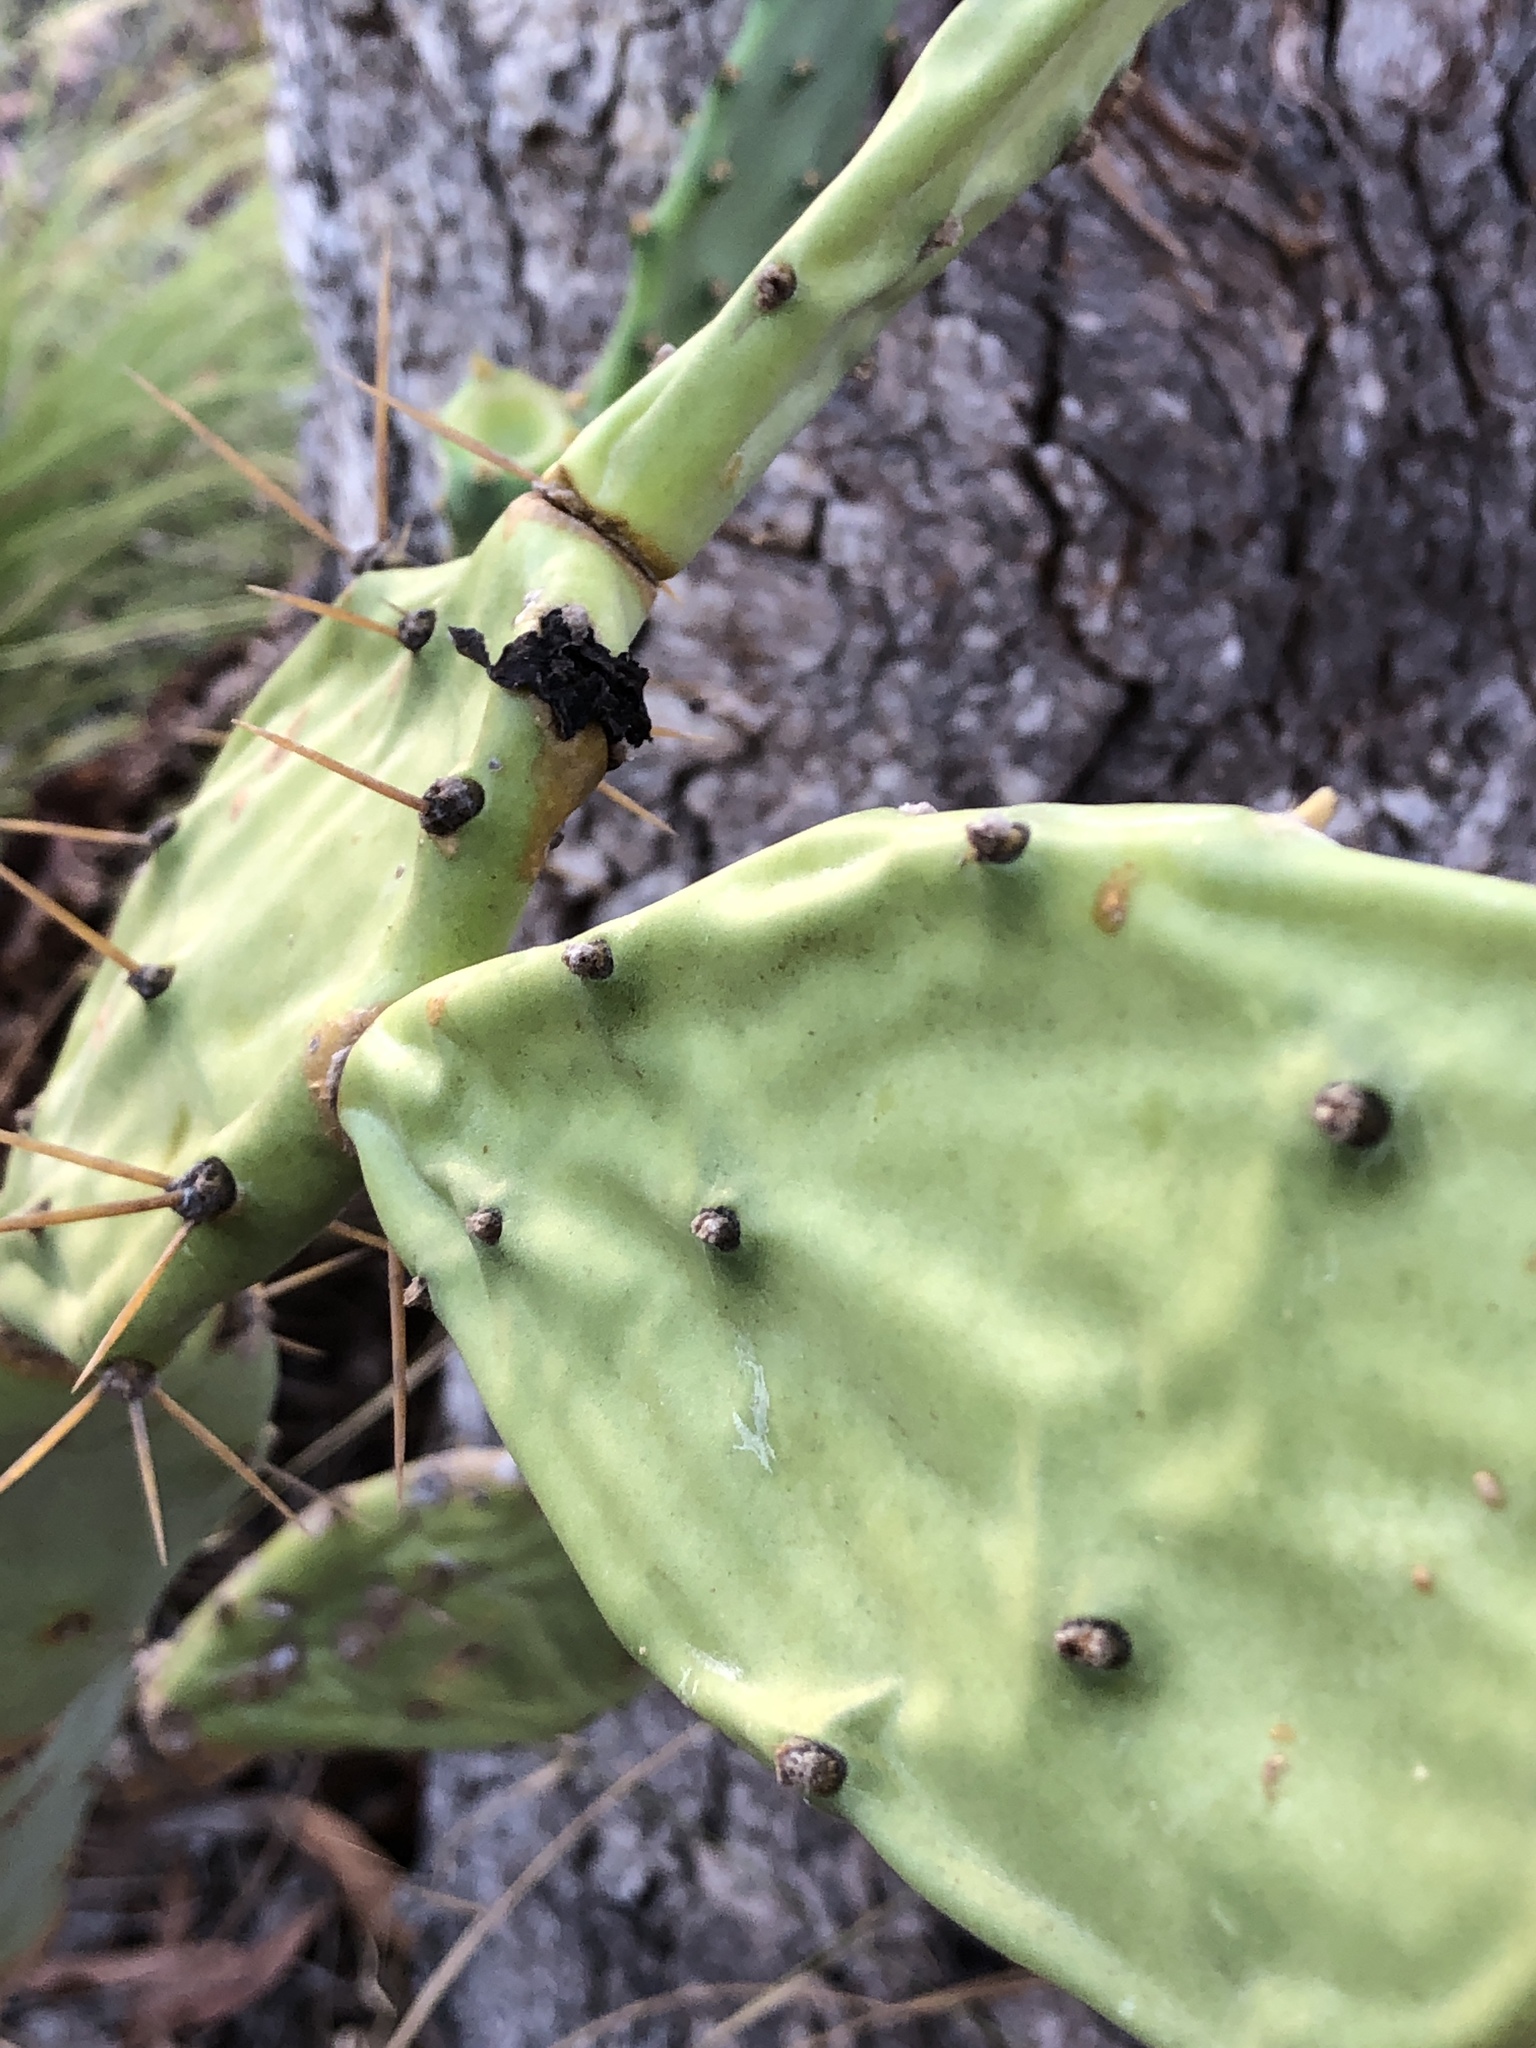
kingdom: Plantae
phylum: Tracheophyta
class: Magnoliopsida
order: Caryophyllales
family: Cactaceae
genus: Opuntia
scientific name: Opuntia stricta
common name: Erect pricklypear
